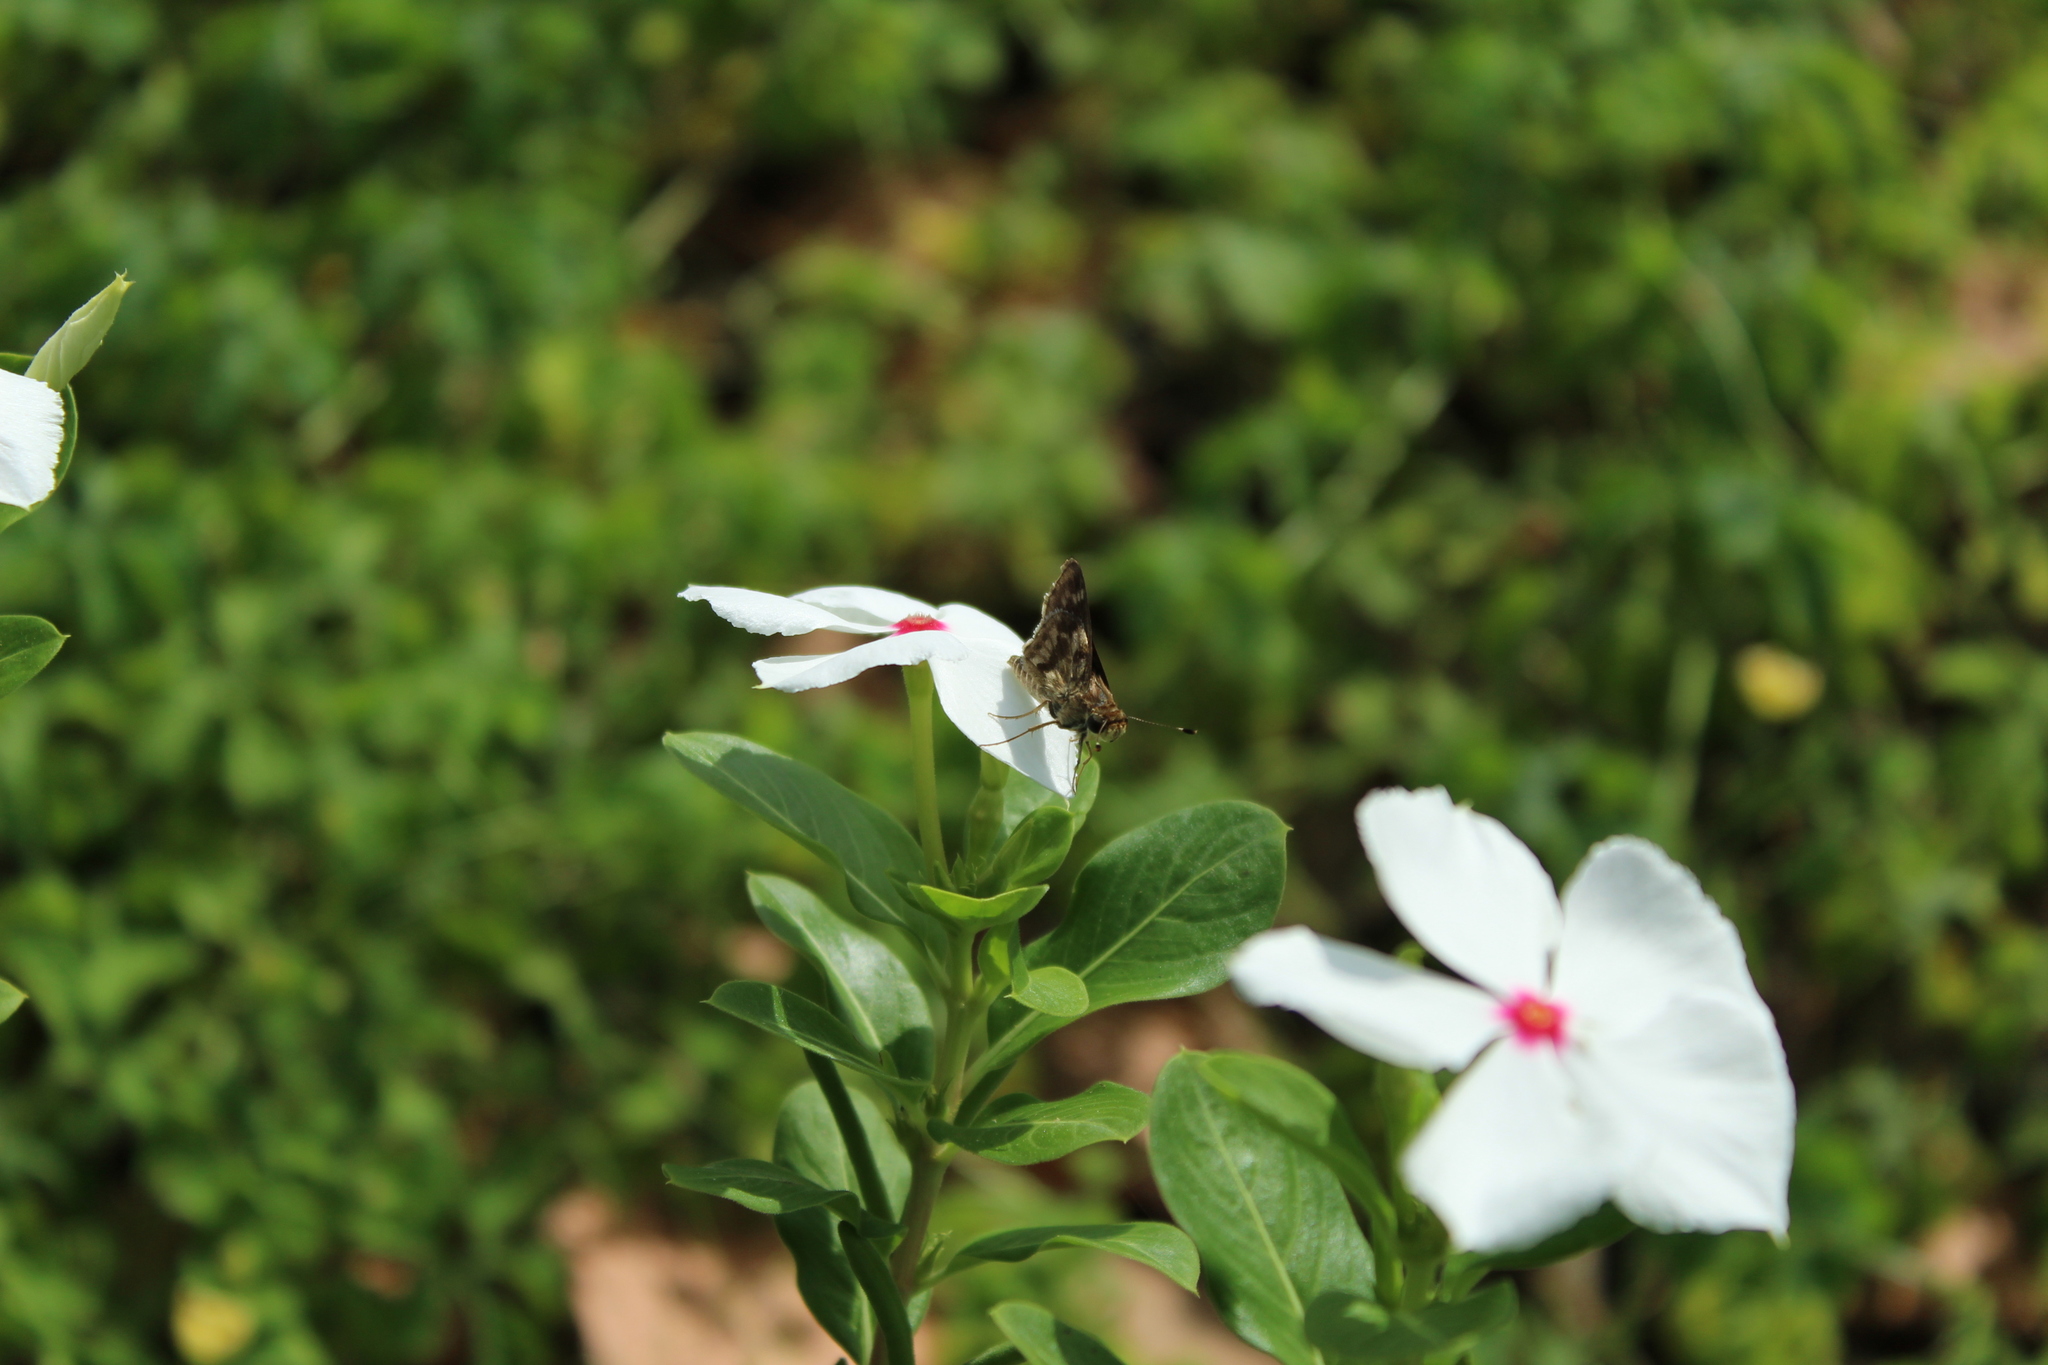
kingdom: Animalia
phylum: Arthropoda
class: Insecta
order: Lepidoptera
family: Hesperiidae
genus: Pompeius
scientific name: Pompeius pompeius
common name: Pompeius skipper
